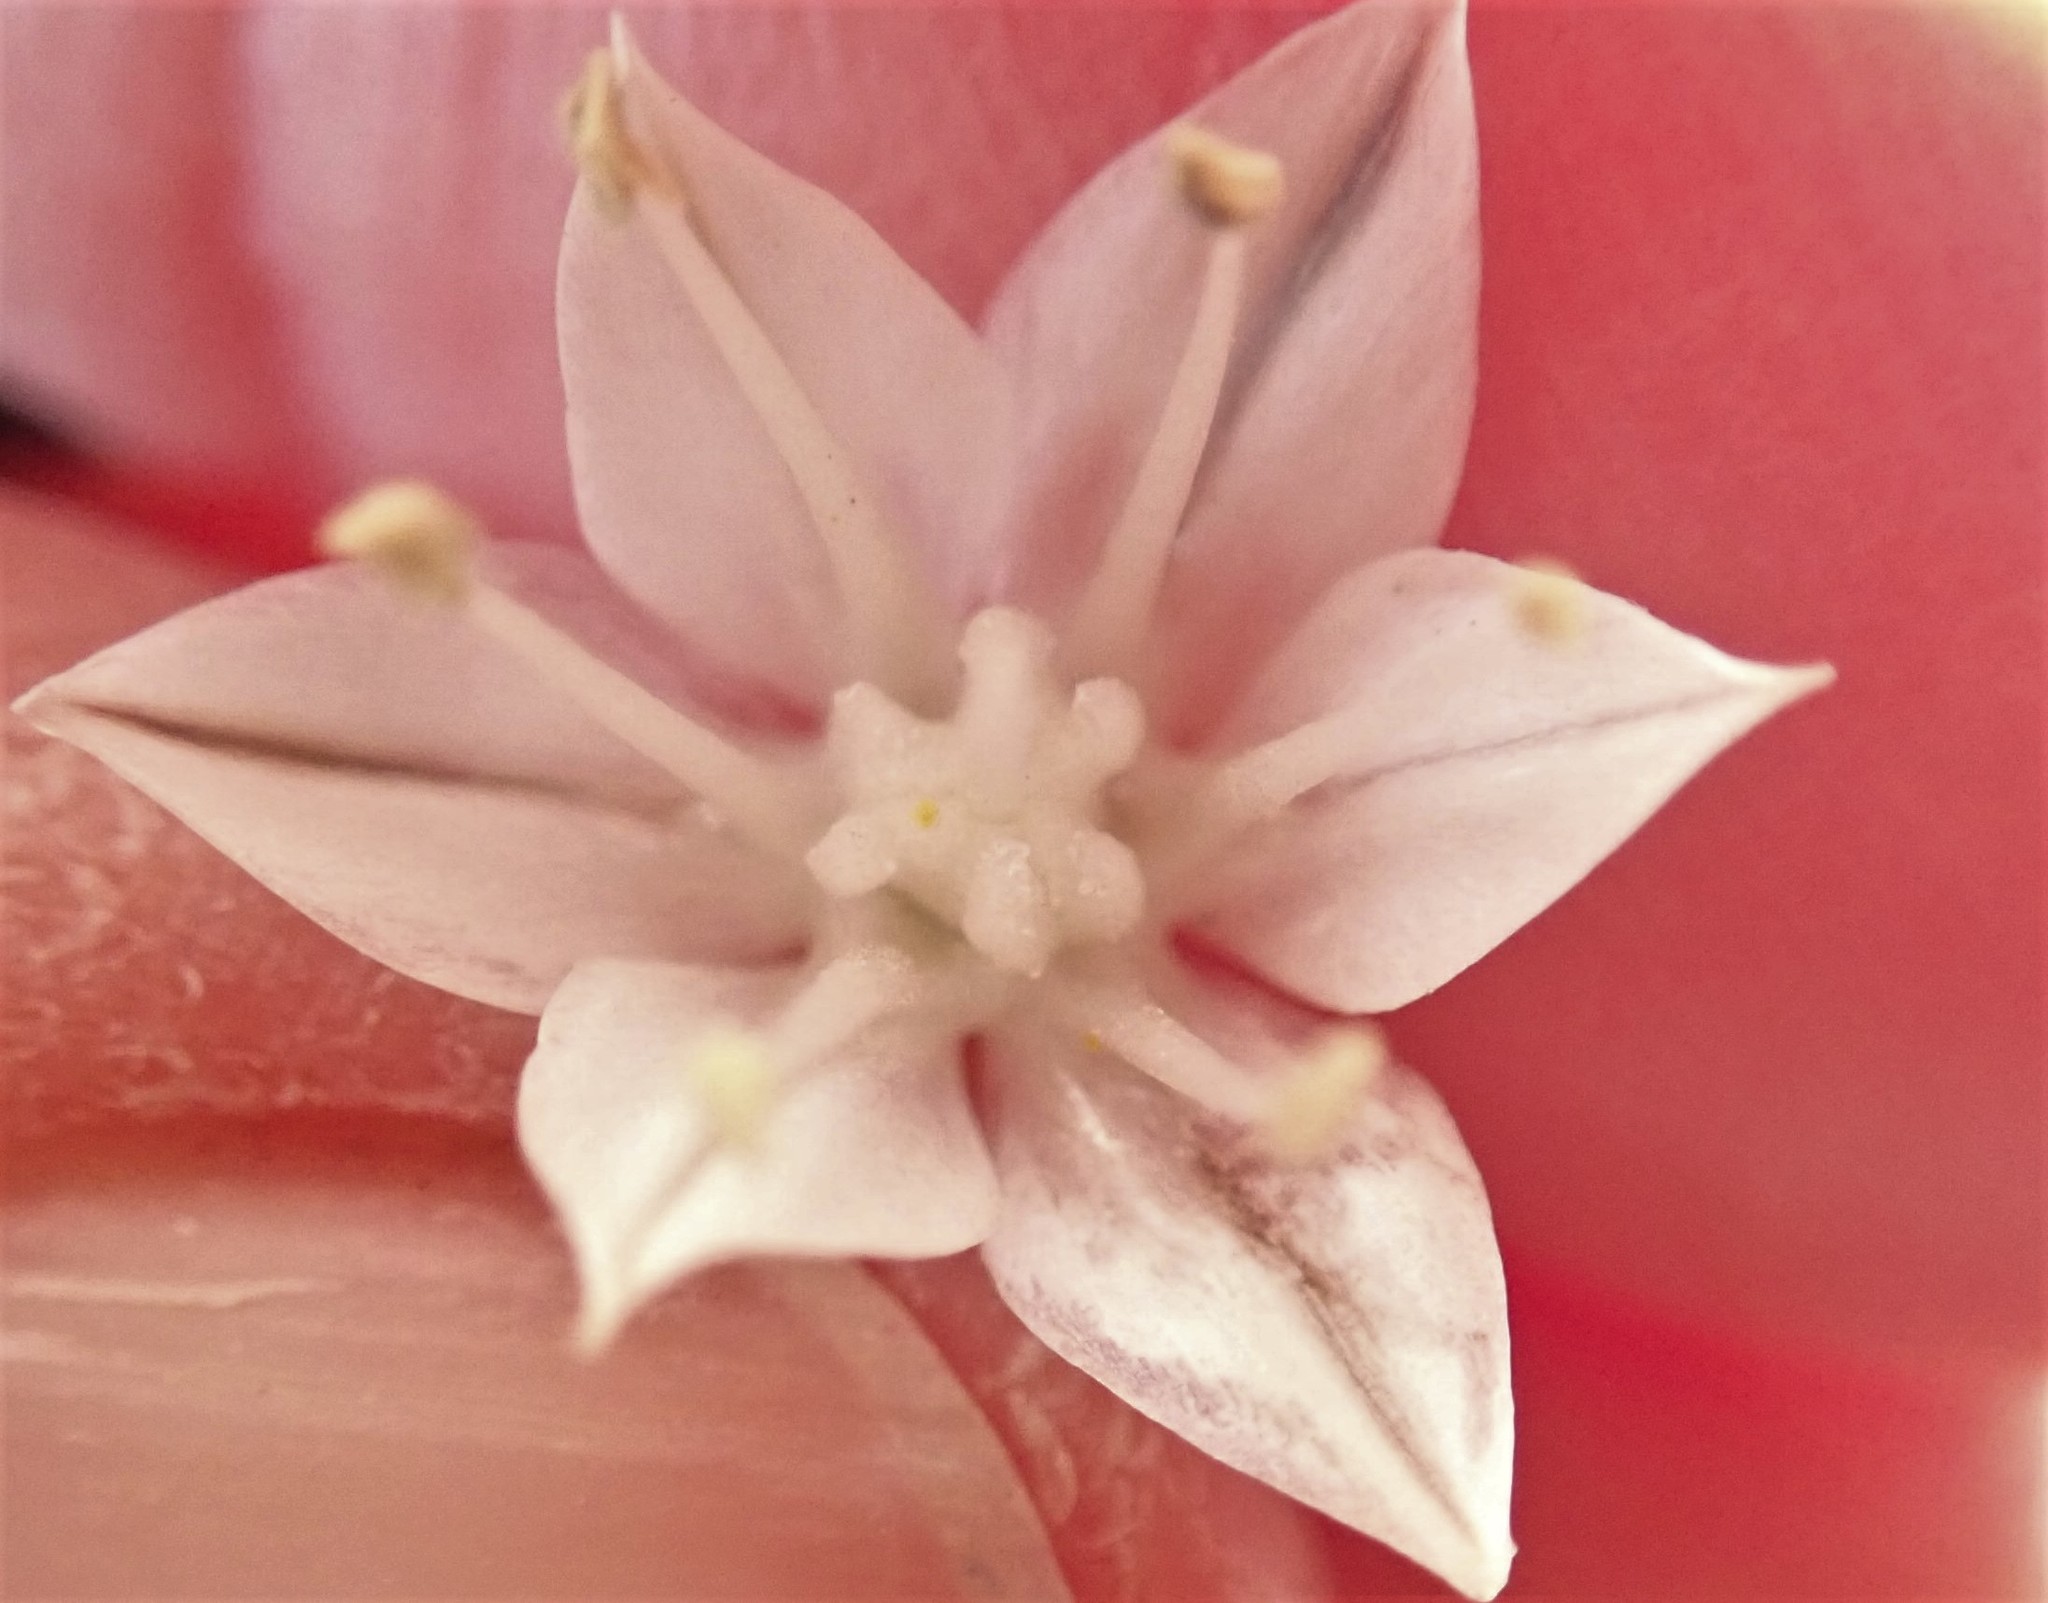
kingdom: Plantae
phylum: Tracheophyta
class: Liliopsida
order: Asparagales
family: Amaryllidaceae
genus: Allium
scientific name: Allium haematochiton
